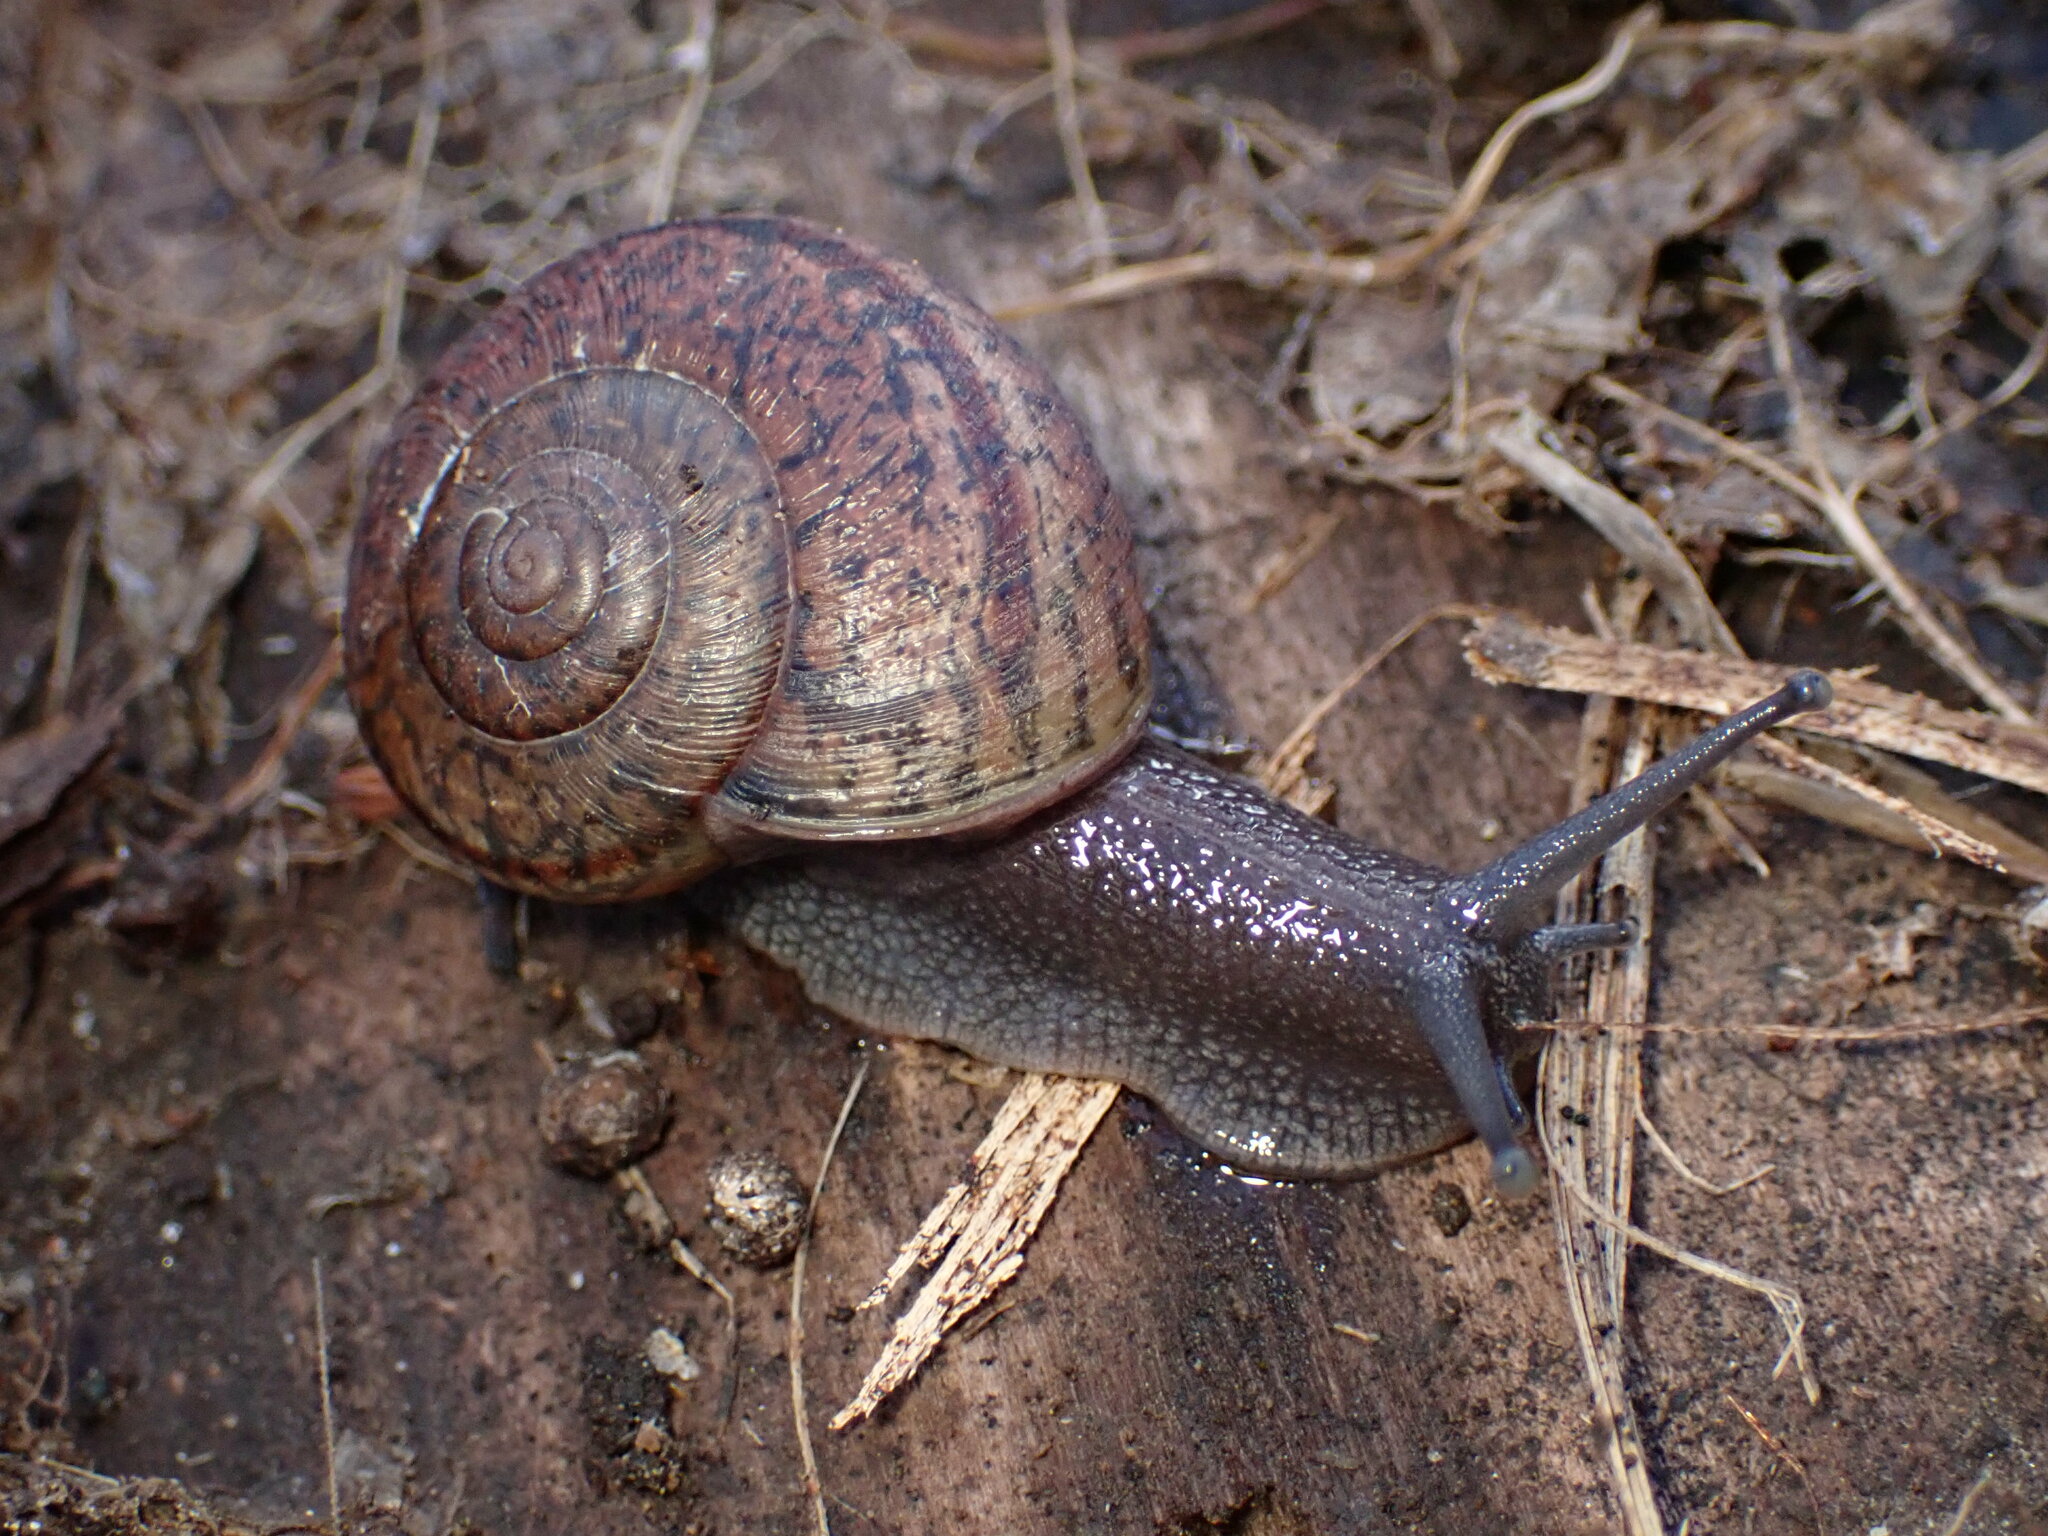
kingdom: Animalia
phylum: Mollusca
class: Gastropoda
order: Stylommatophora
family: Xanthonychidae
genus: Helminthoglypta
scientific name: Helminthoglypta cypreophila
